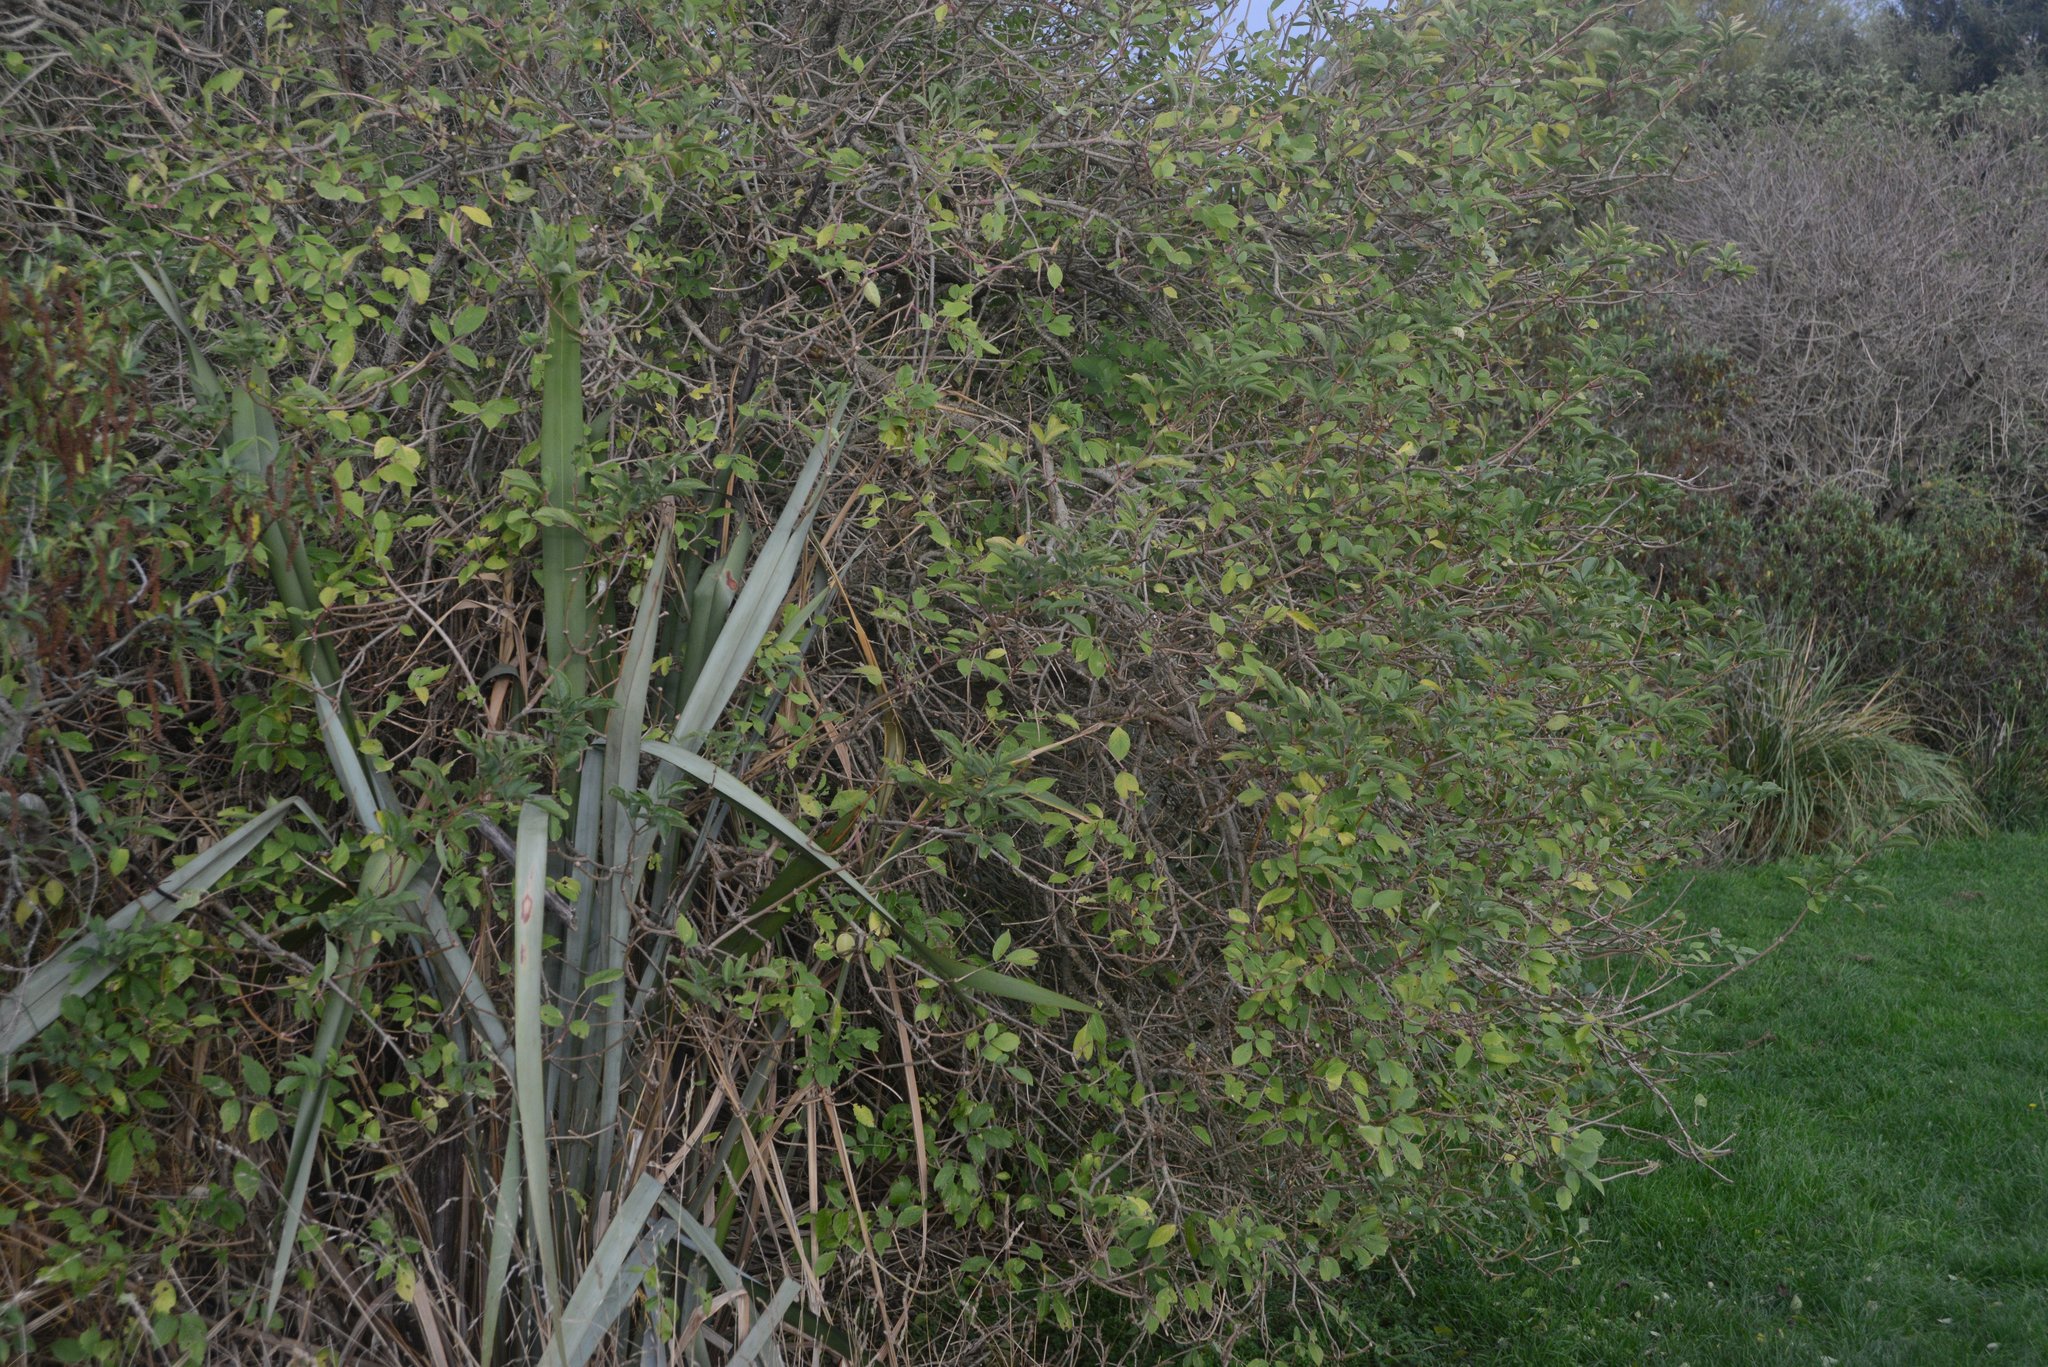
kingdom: Plantae
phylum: Tracheophyta
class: Magnoliopsida
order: Dipsacales
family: Viburnaceae
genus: Sambucus
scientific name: Sambucus nigra
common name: Elder
